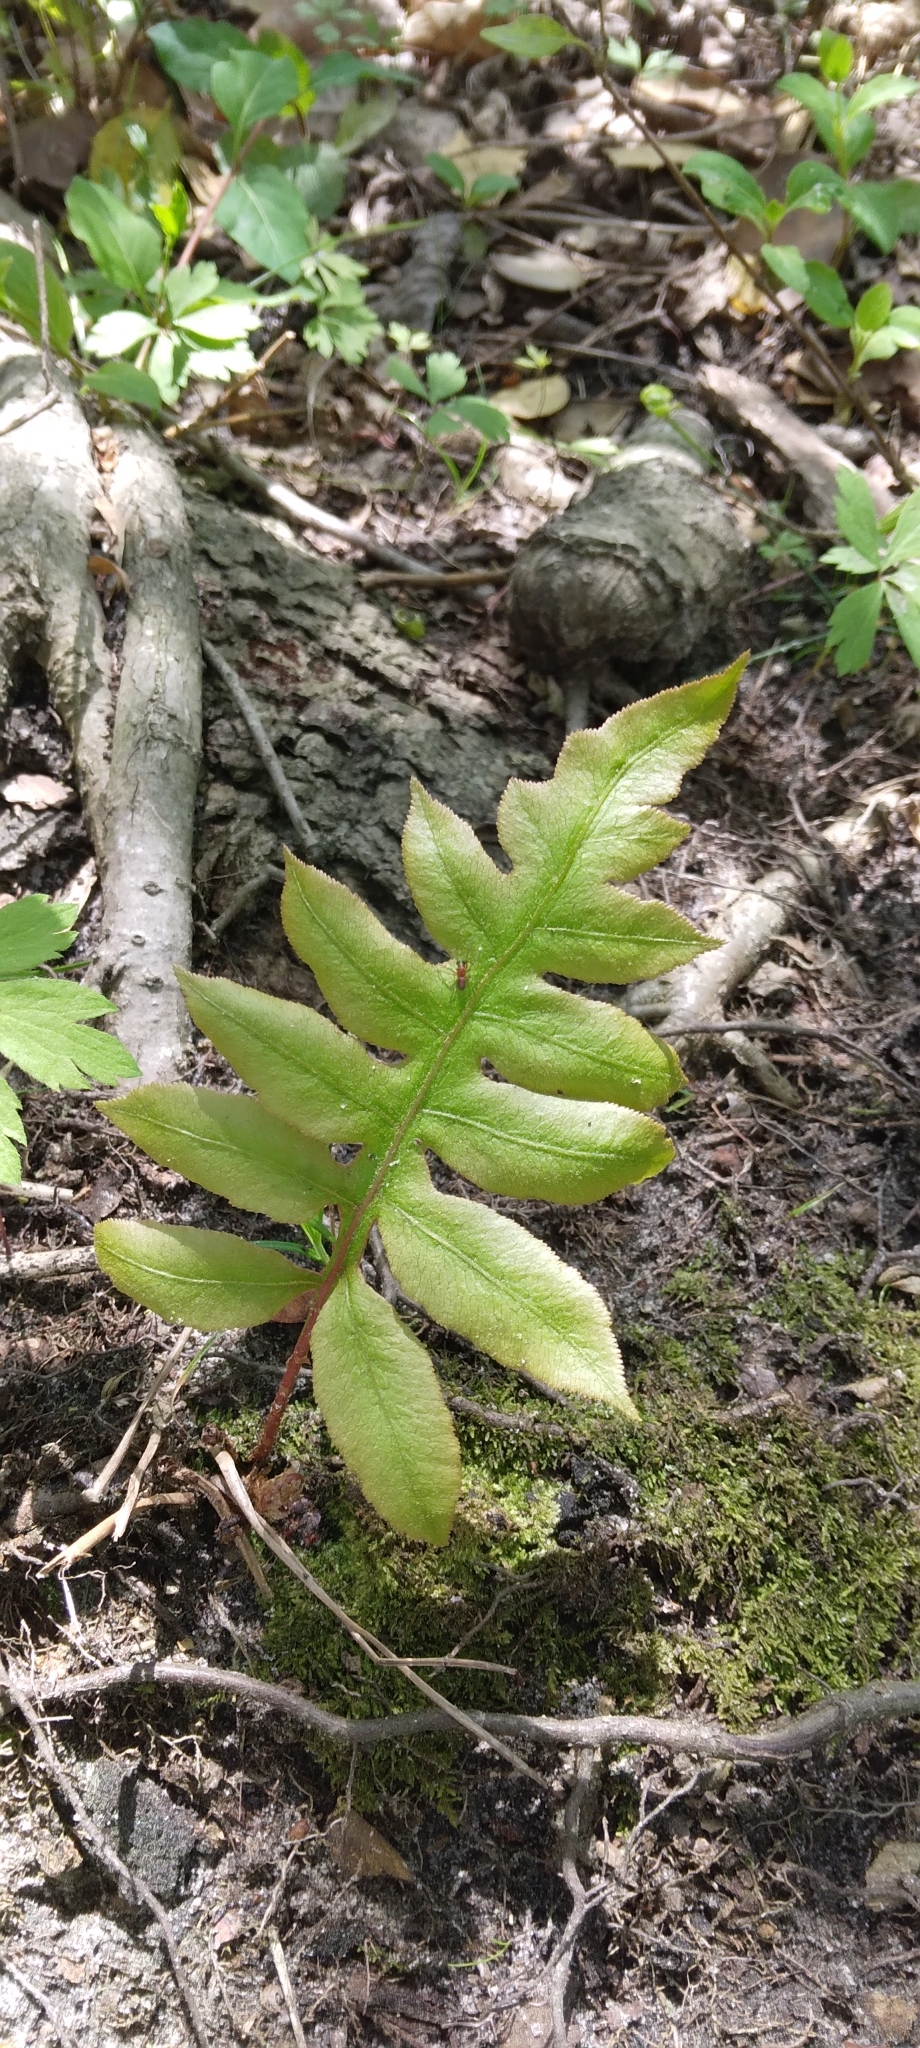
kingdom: Plantae
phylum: Tracheophyta
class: Polypodiopsida
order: Polypodiales
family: Blechnaceae
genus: Lorinseria
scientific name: Lorinseria areolata
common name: Dwarf chain fern
